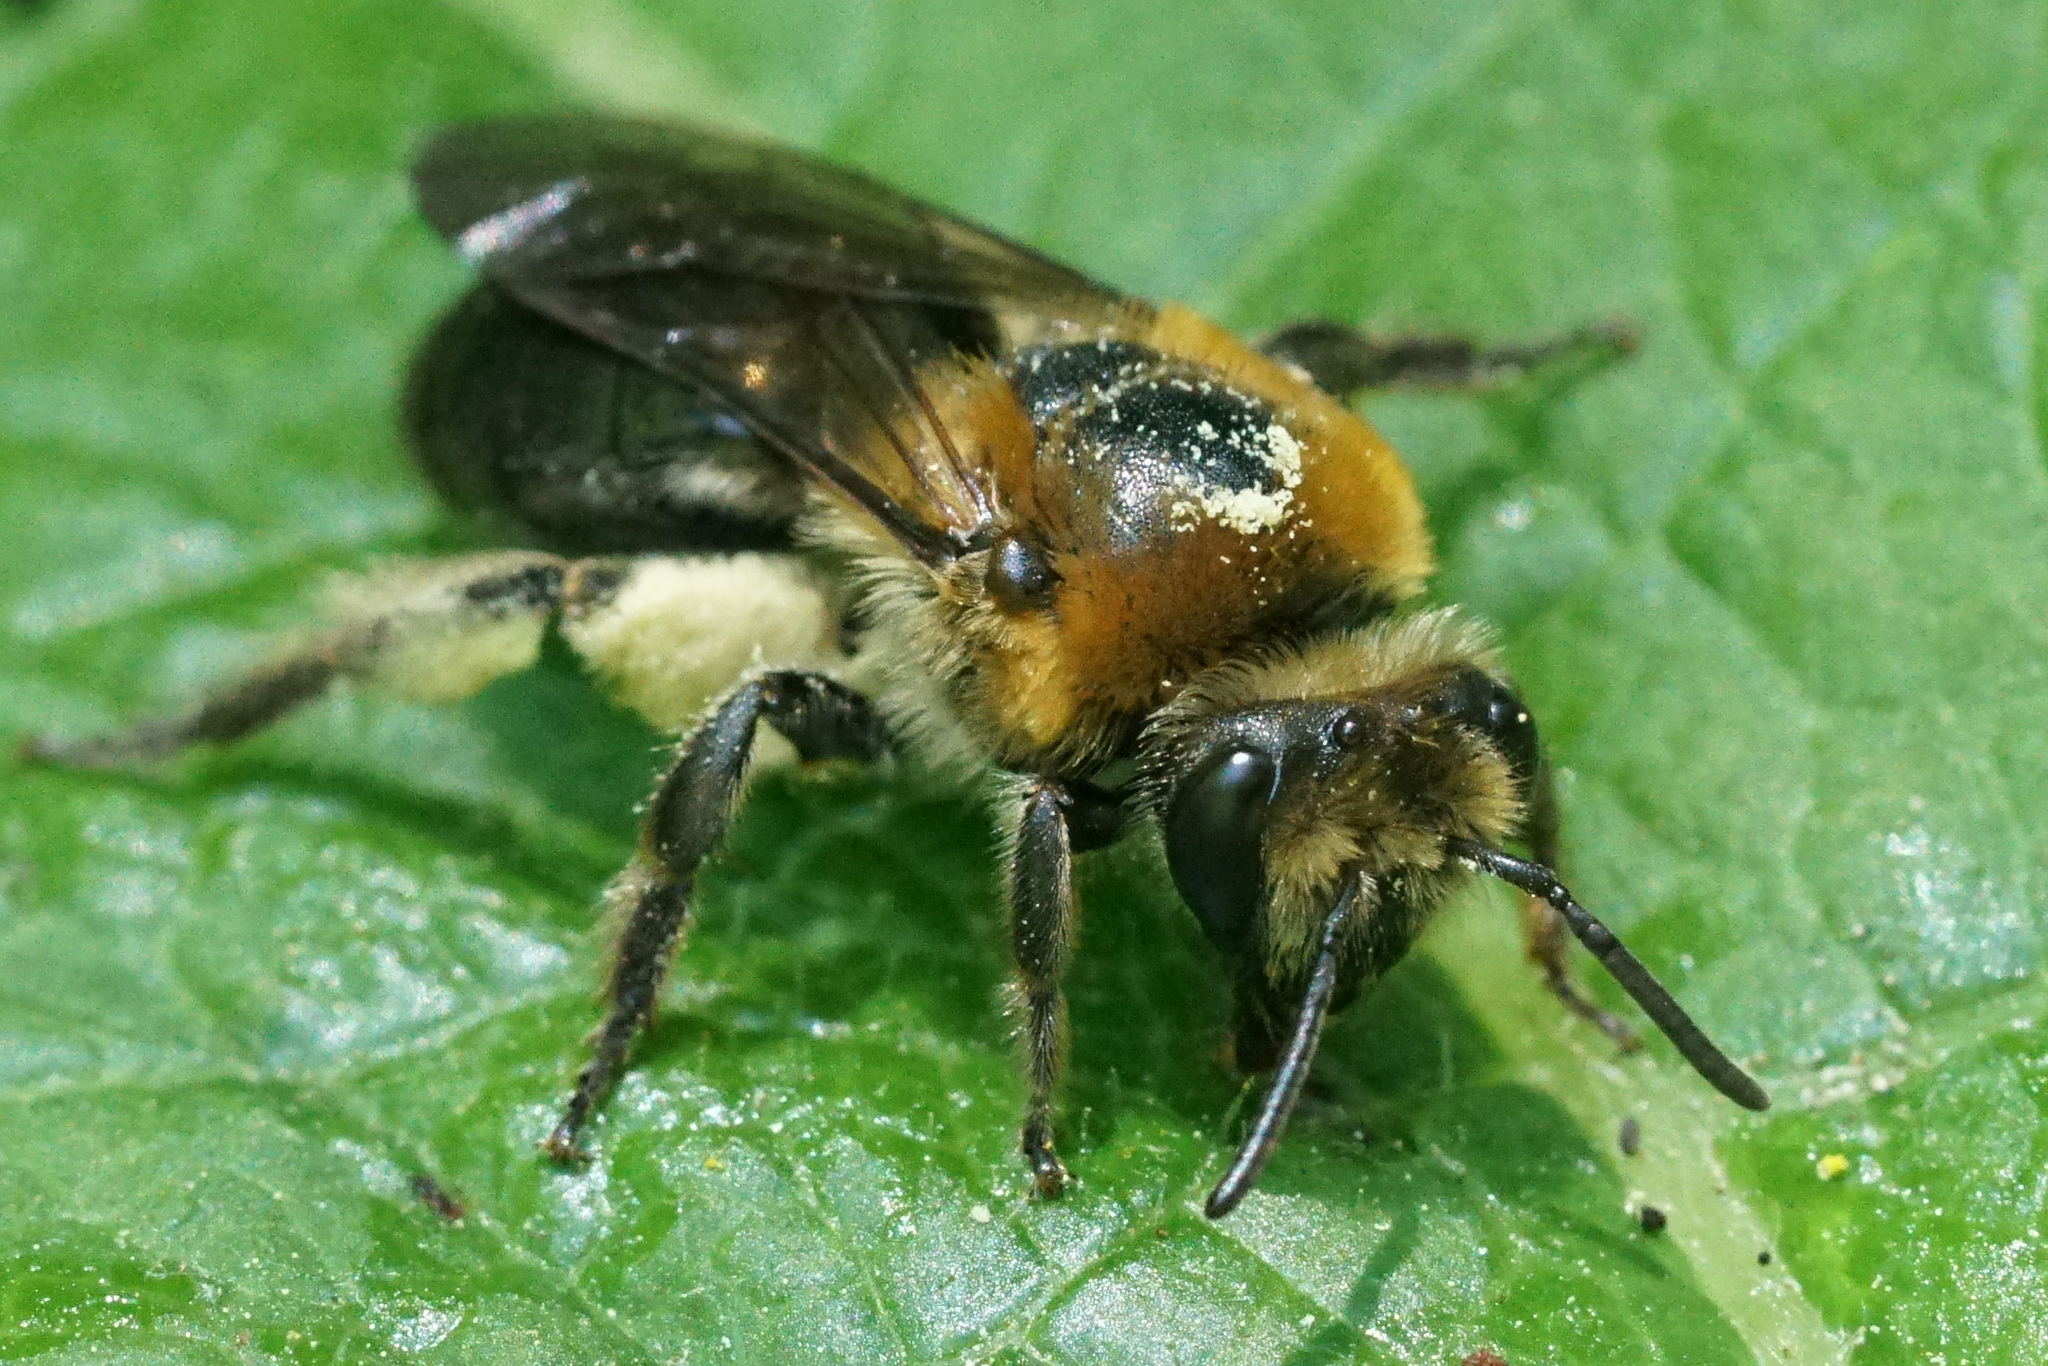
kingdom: Animalia
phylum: Arthropoda
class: Insecta
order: Hymenoptera
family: Colletidae
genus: Colletes
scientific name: Colletes thoracicus
